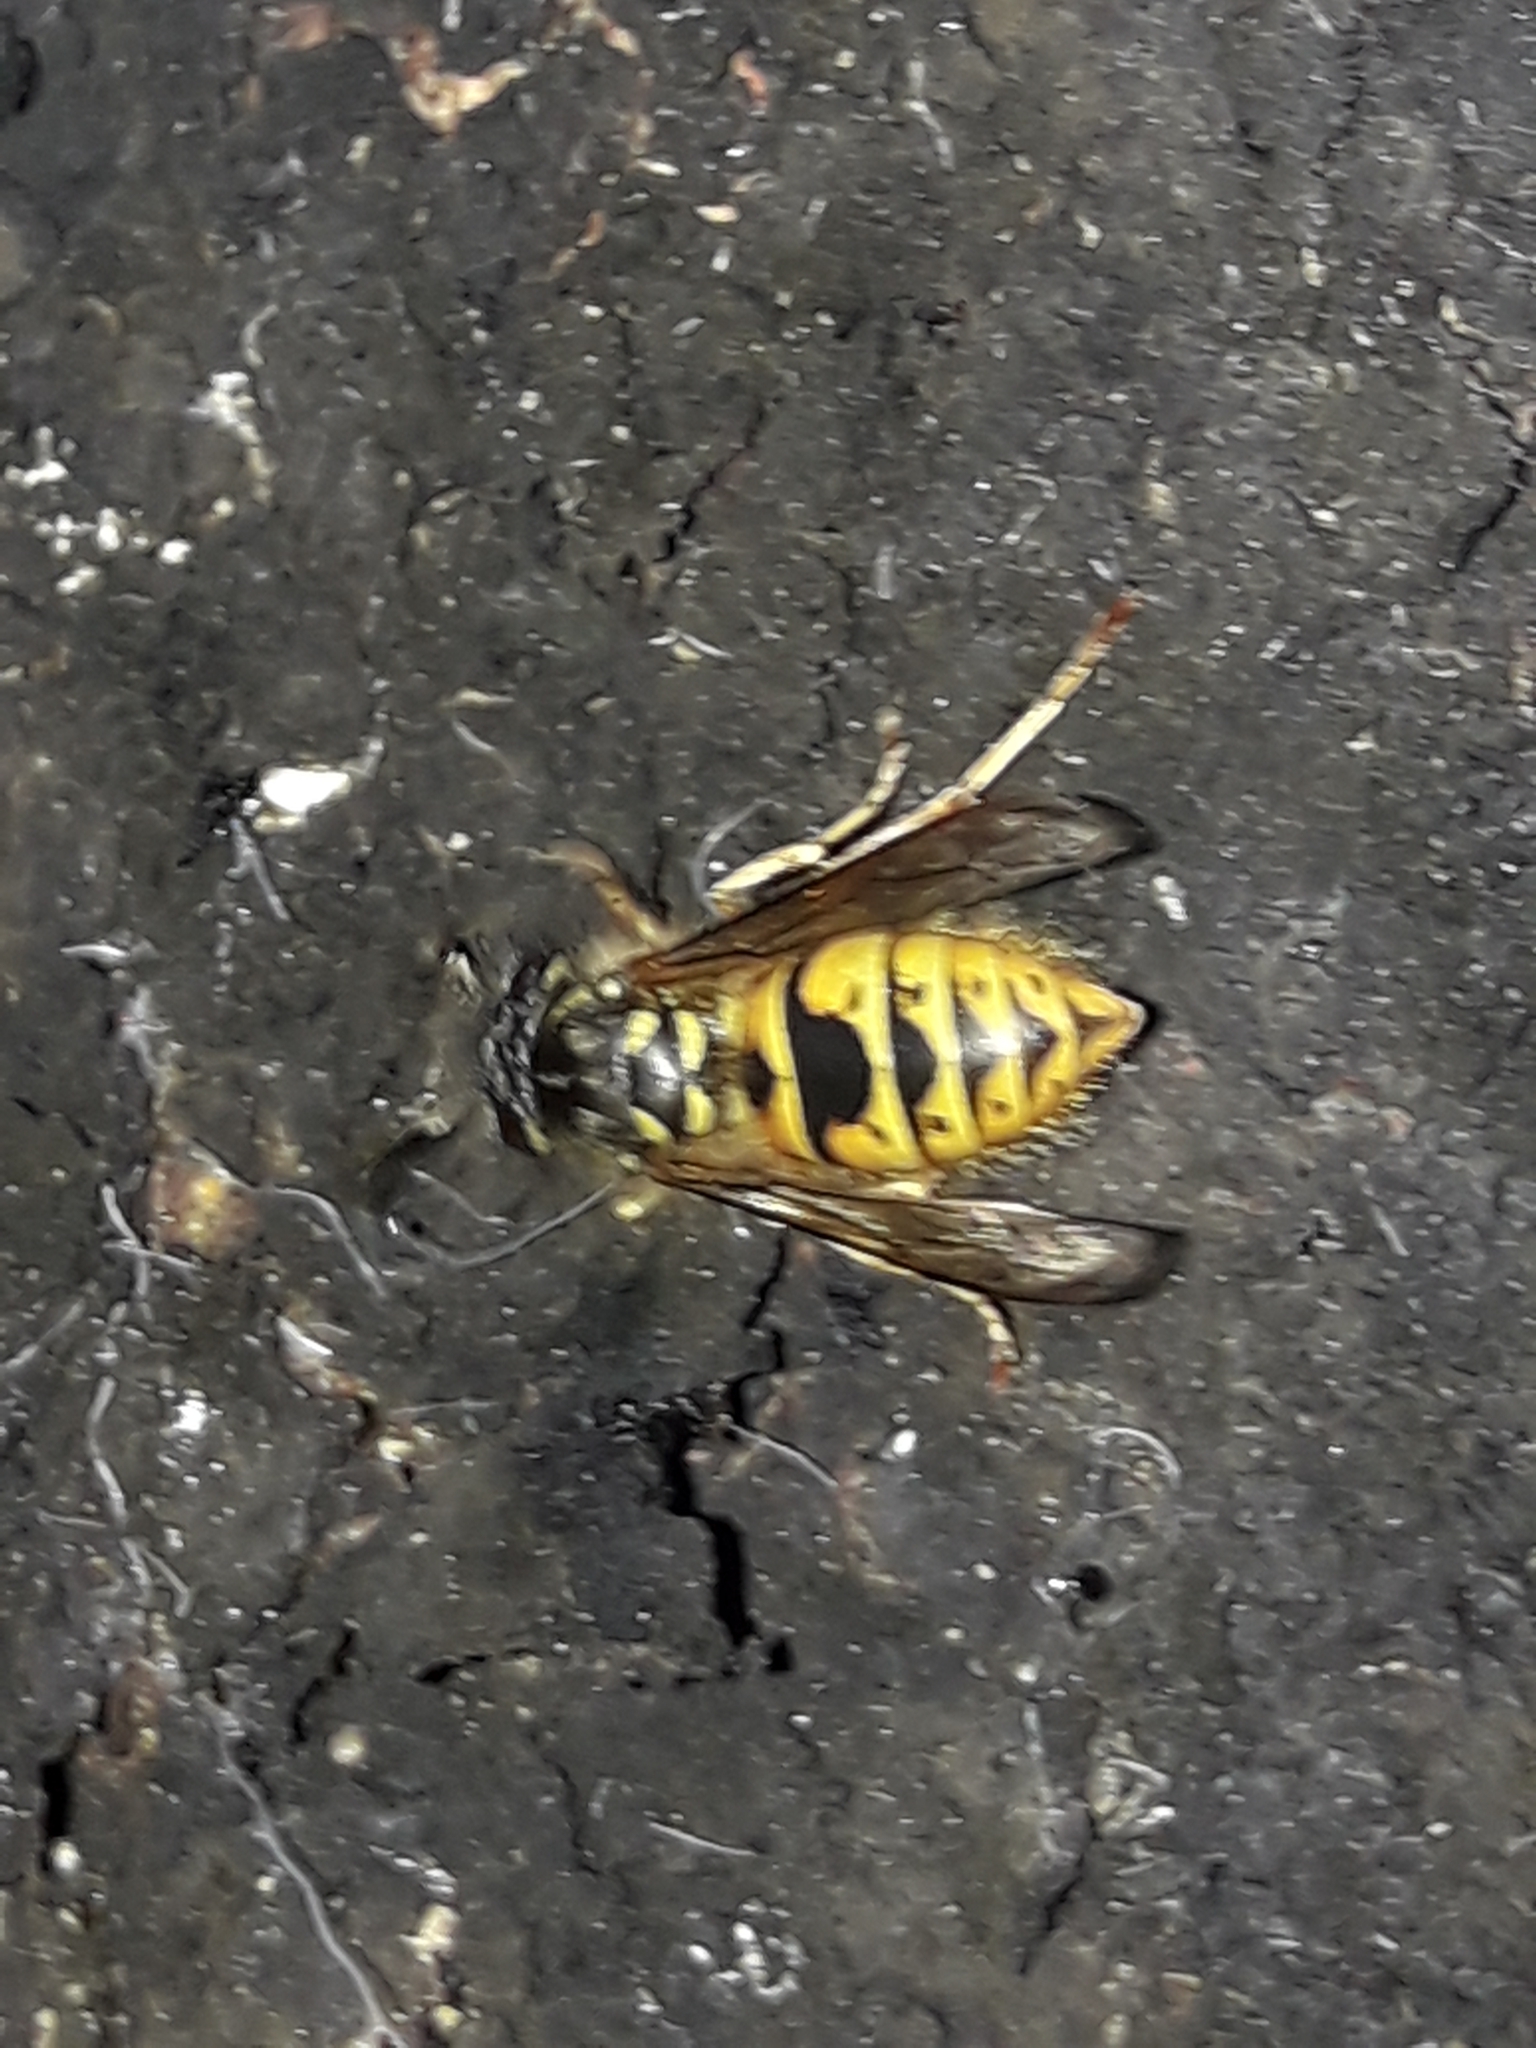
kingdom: Animalia
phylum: Arthropoda
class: Insecta
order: Hymenoptera
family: Vespidae
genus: Vespula
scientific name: Vespula vulgaris
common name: Common wasp
